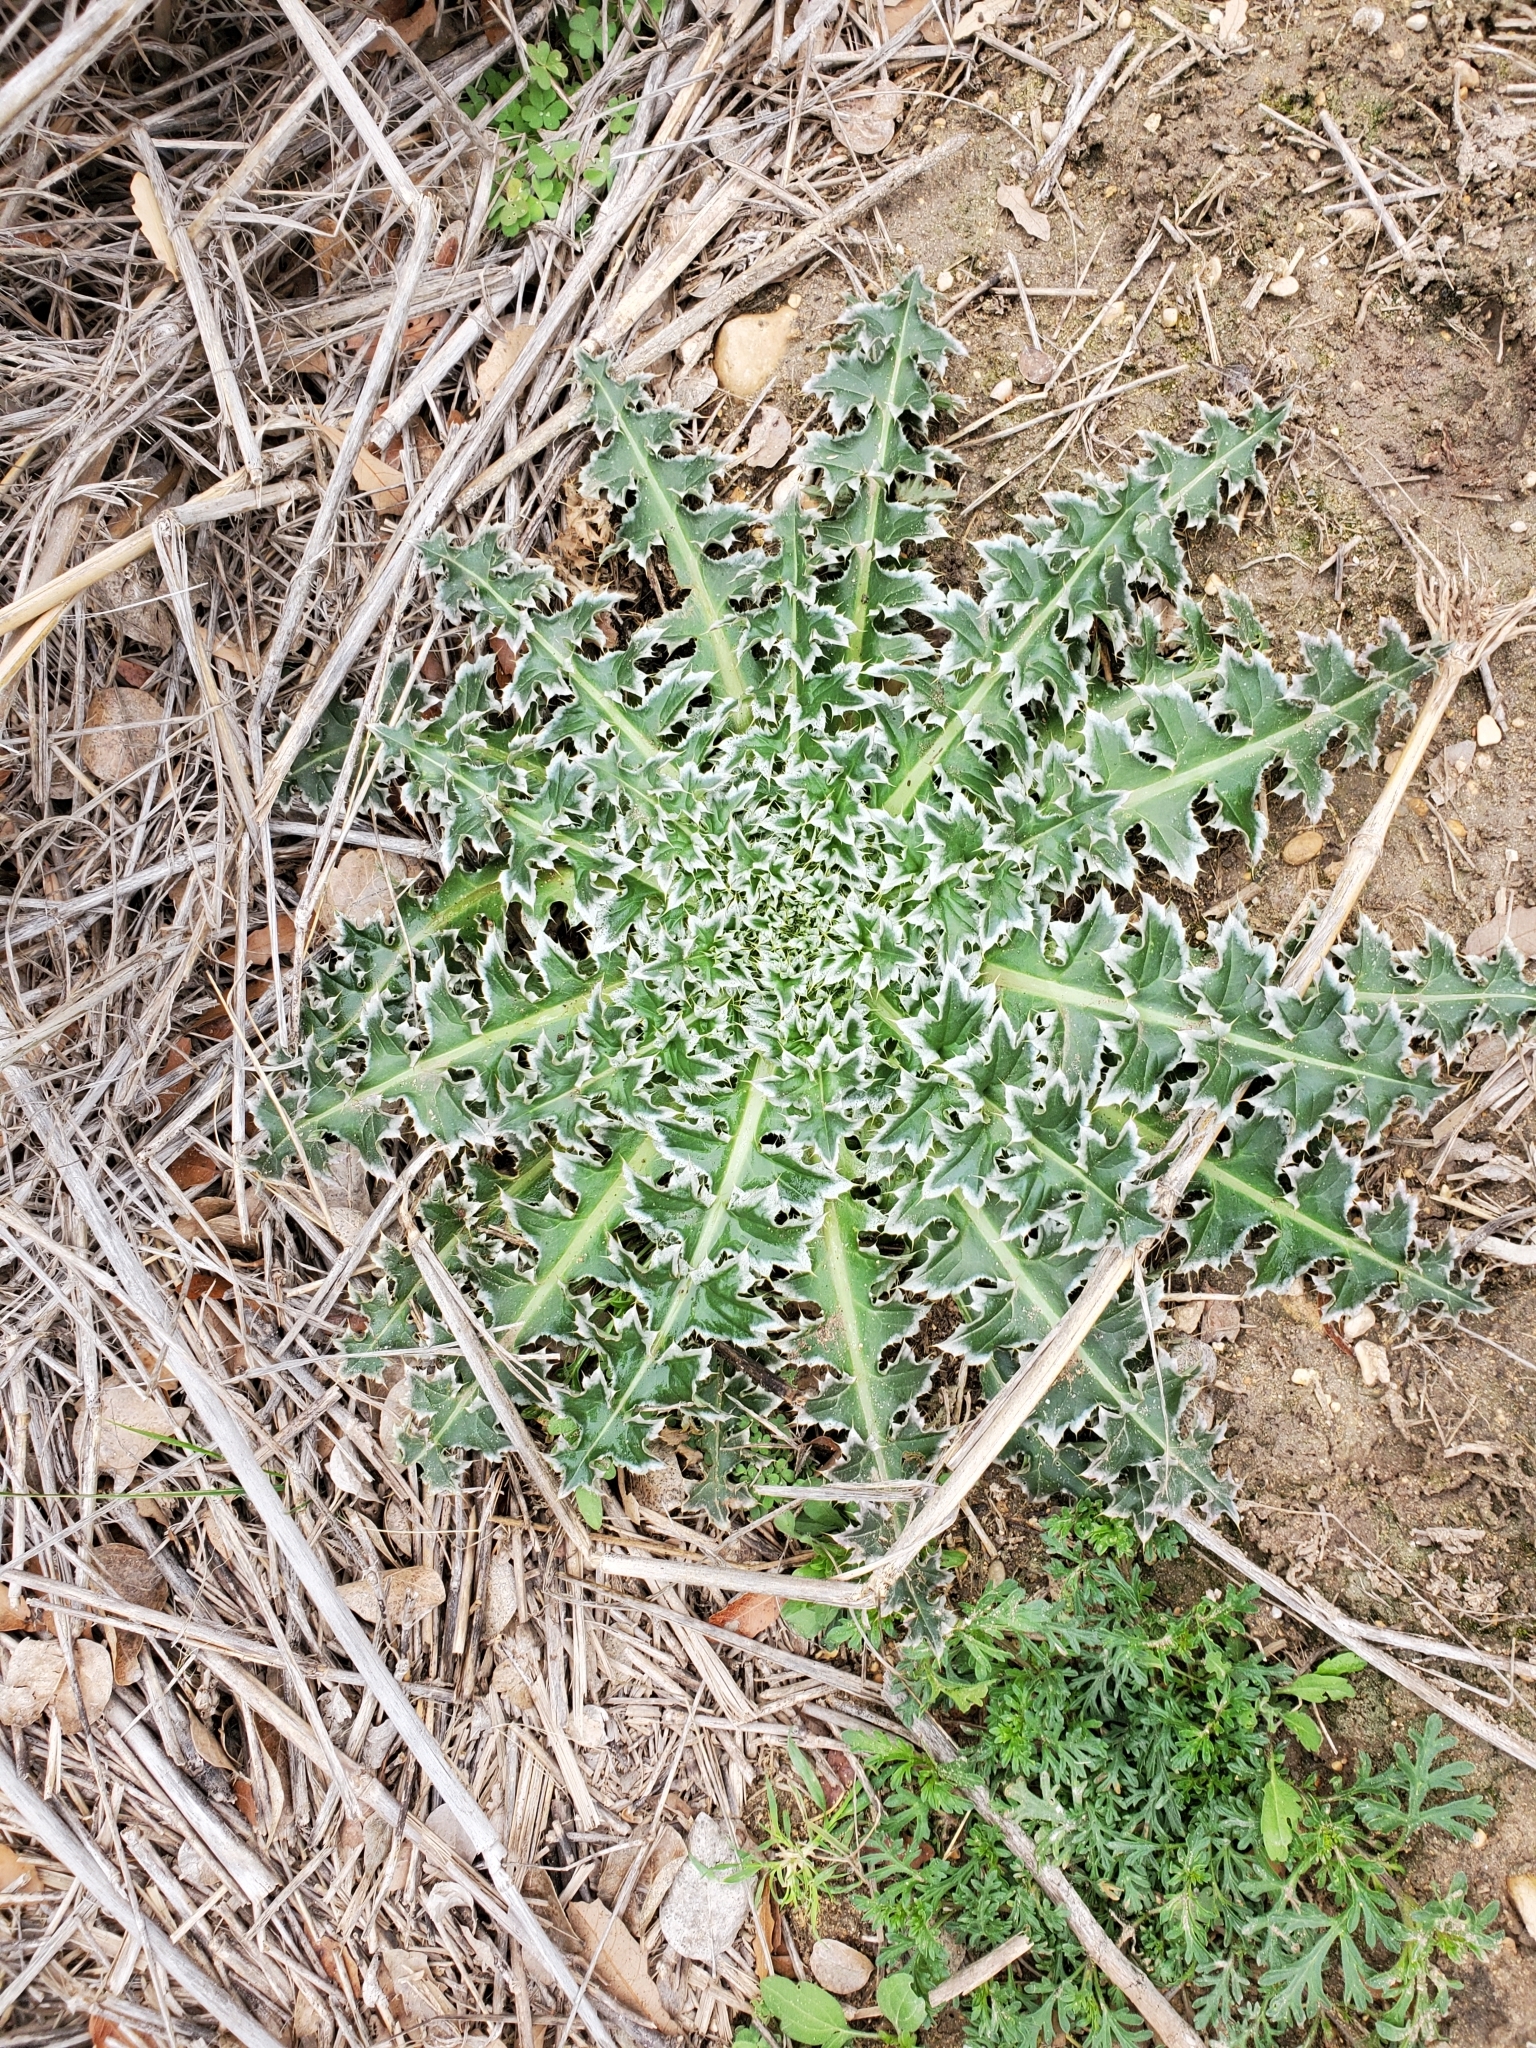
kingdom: Plantae
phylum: Tracheophyta
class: Magnoliopsida
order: Asterales
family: Asteraceae
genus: Carduus
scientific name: Carduus nutans
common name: Musk thistle
